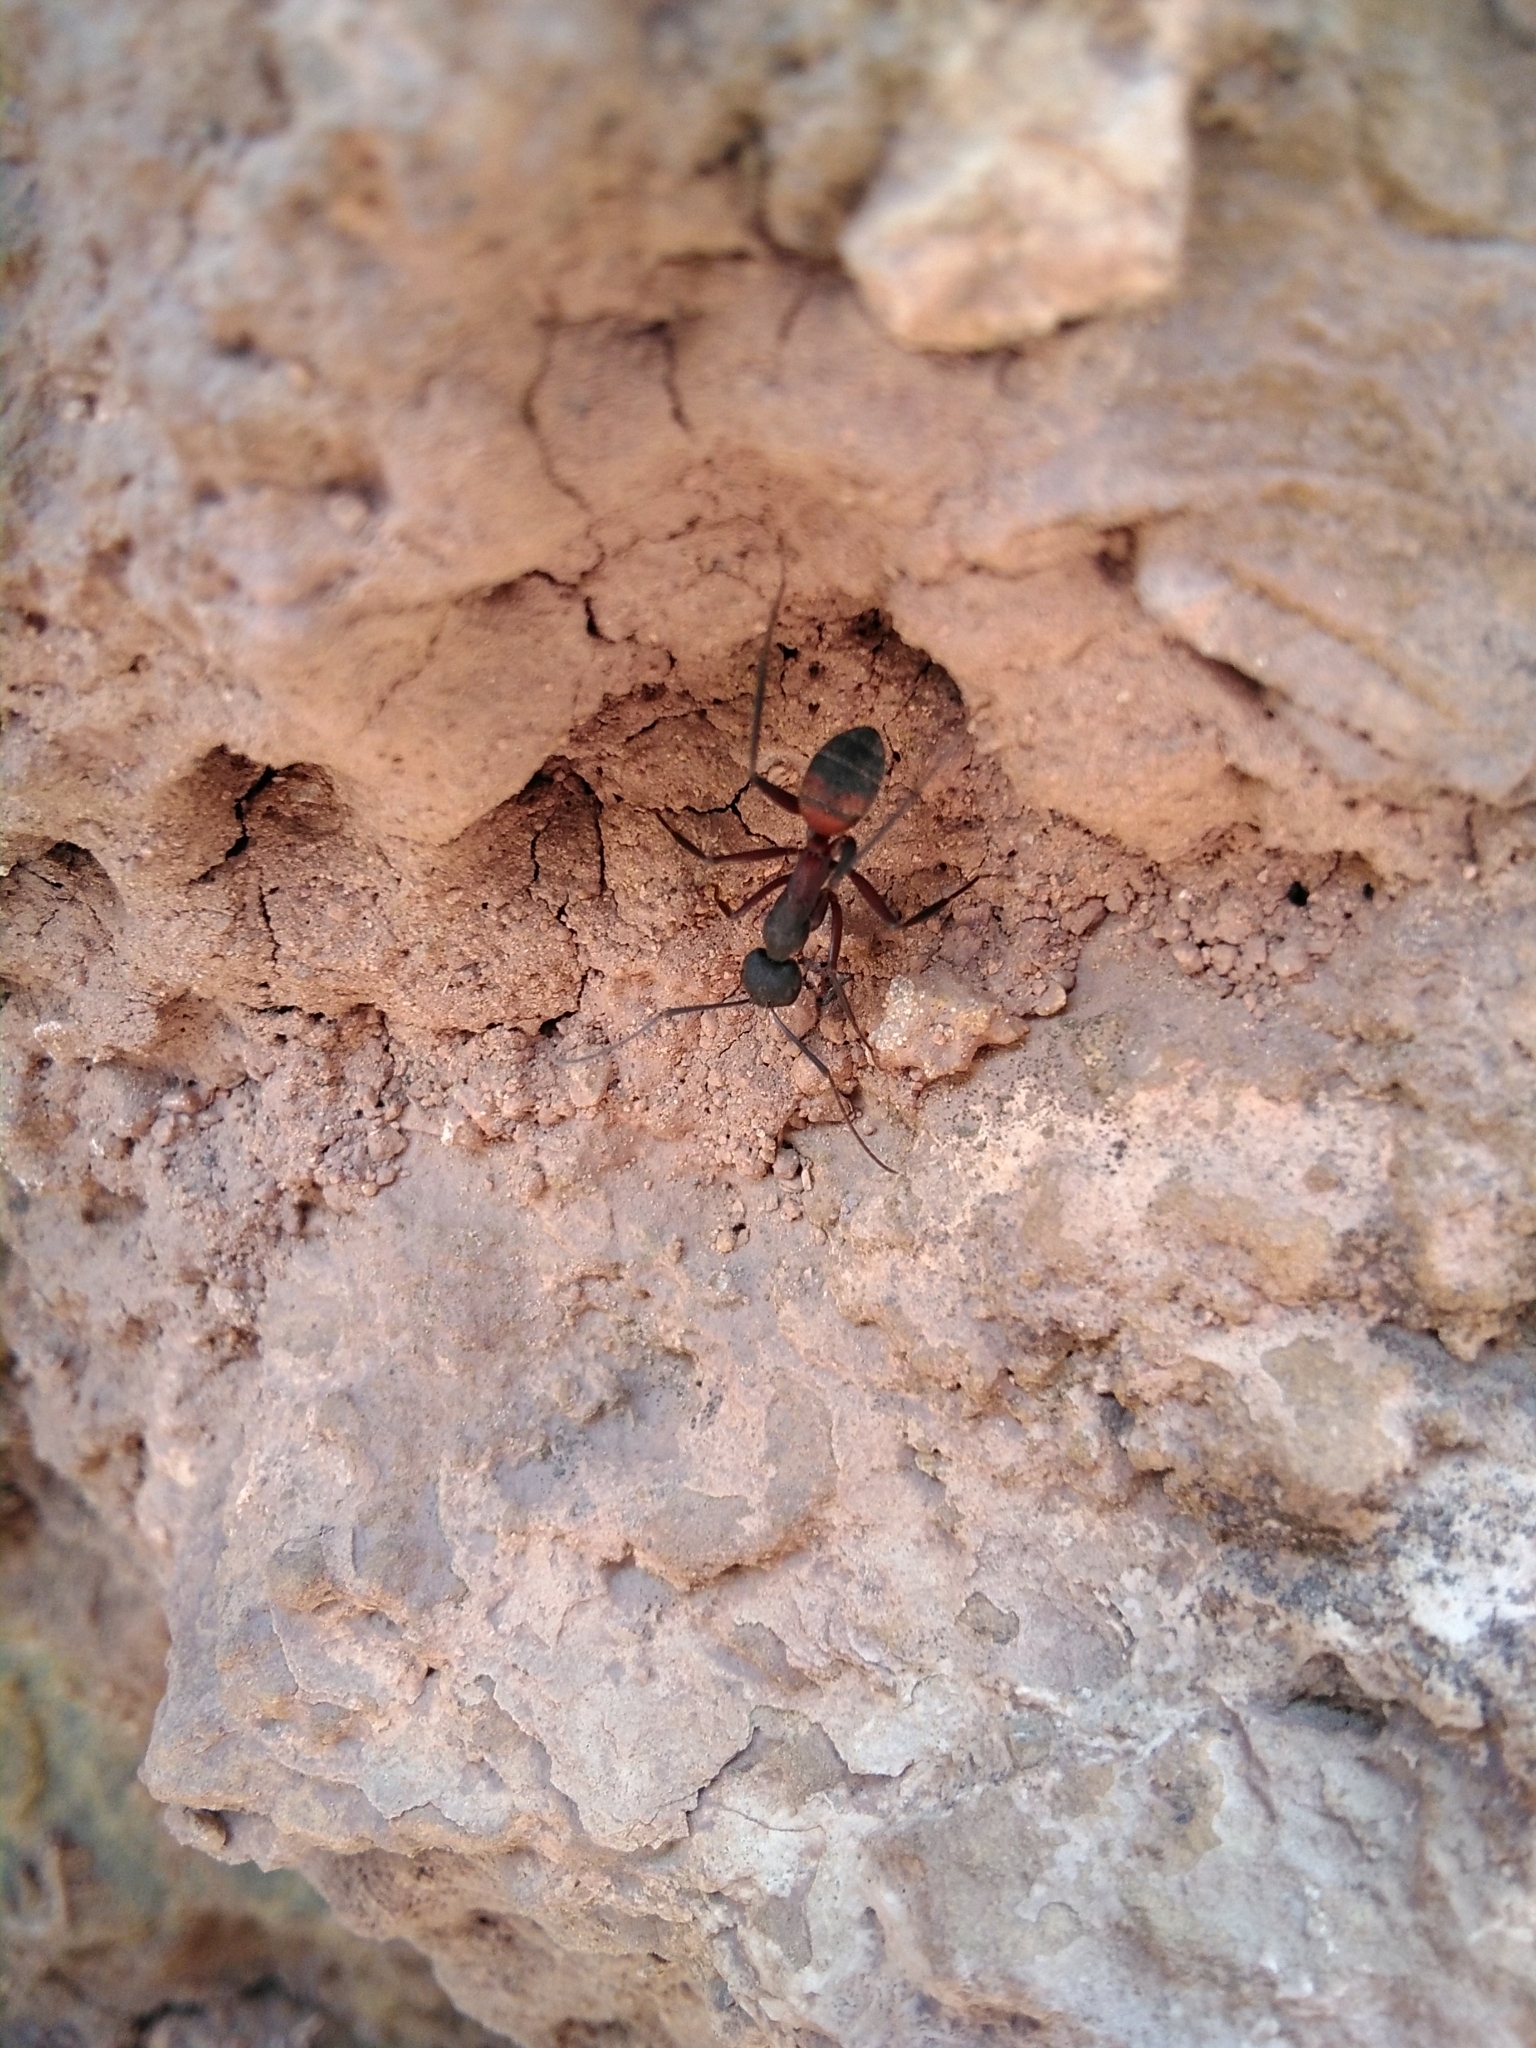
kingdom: Animalia
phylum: Arthropoda
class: Insecta
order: Hymenoptera
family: Formicidae
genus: Camponotus
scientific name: Camponotus cruentatus
